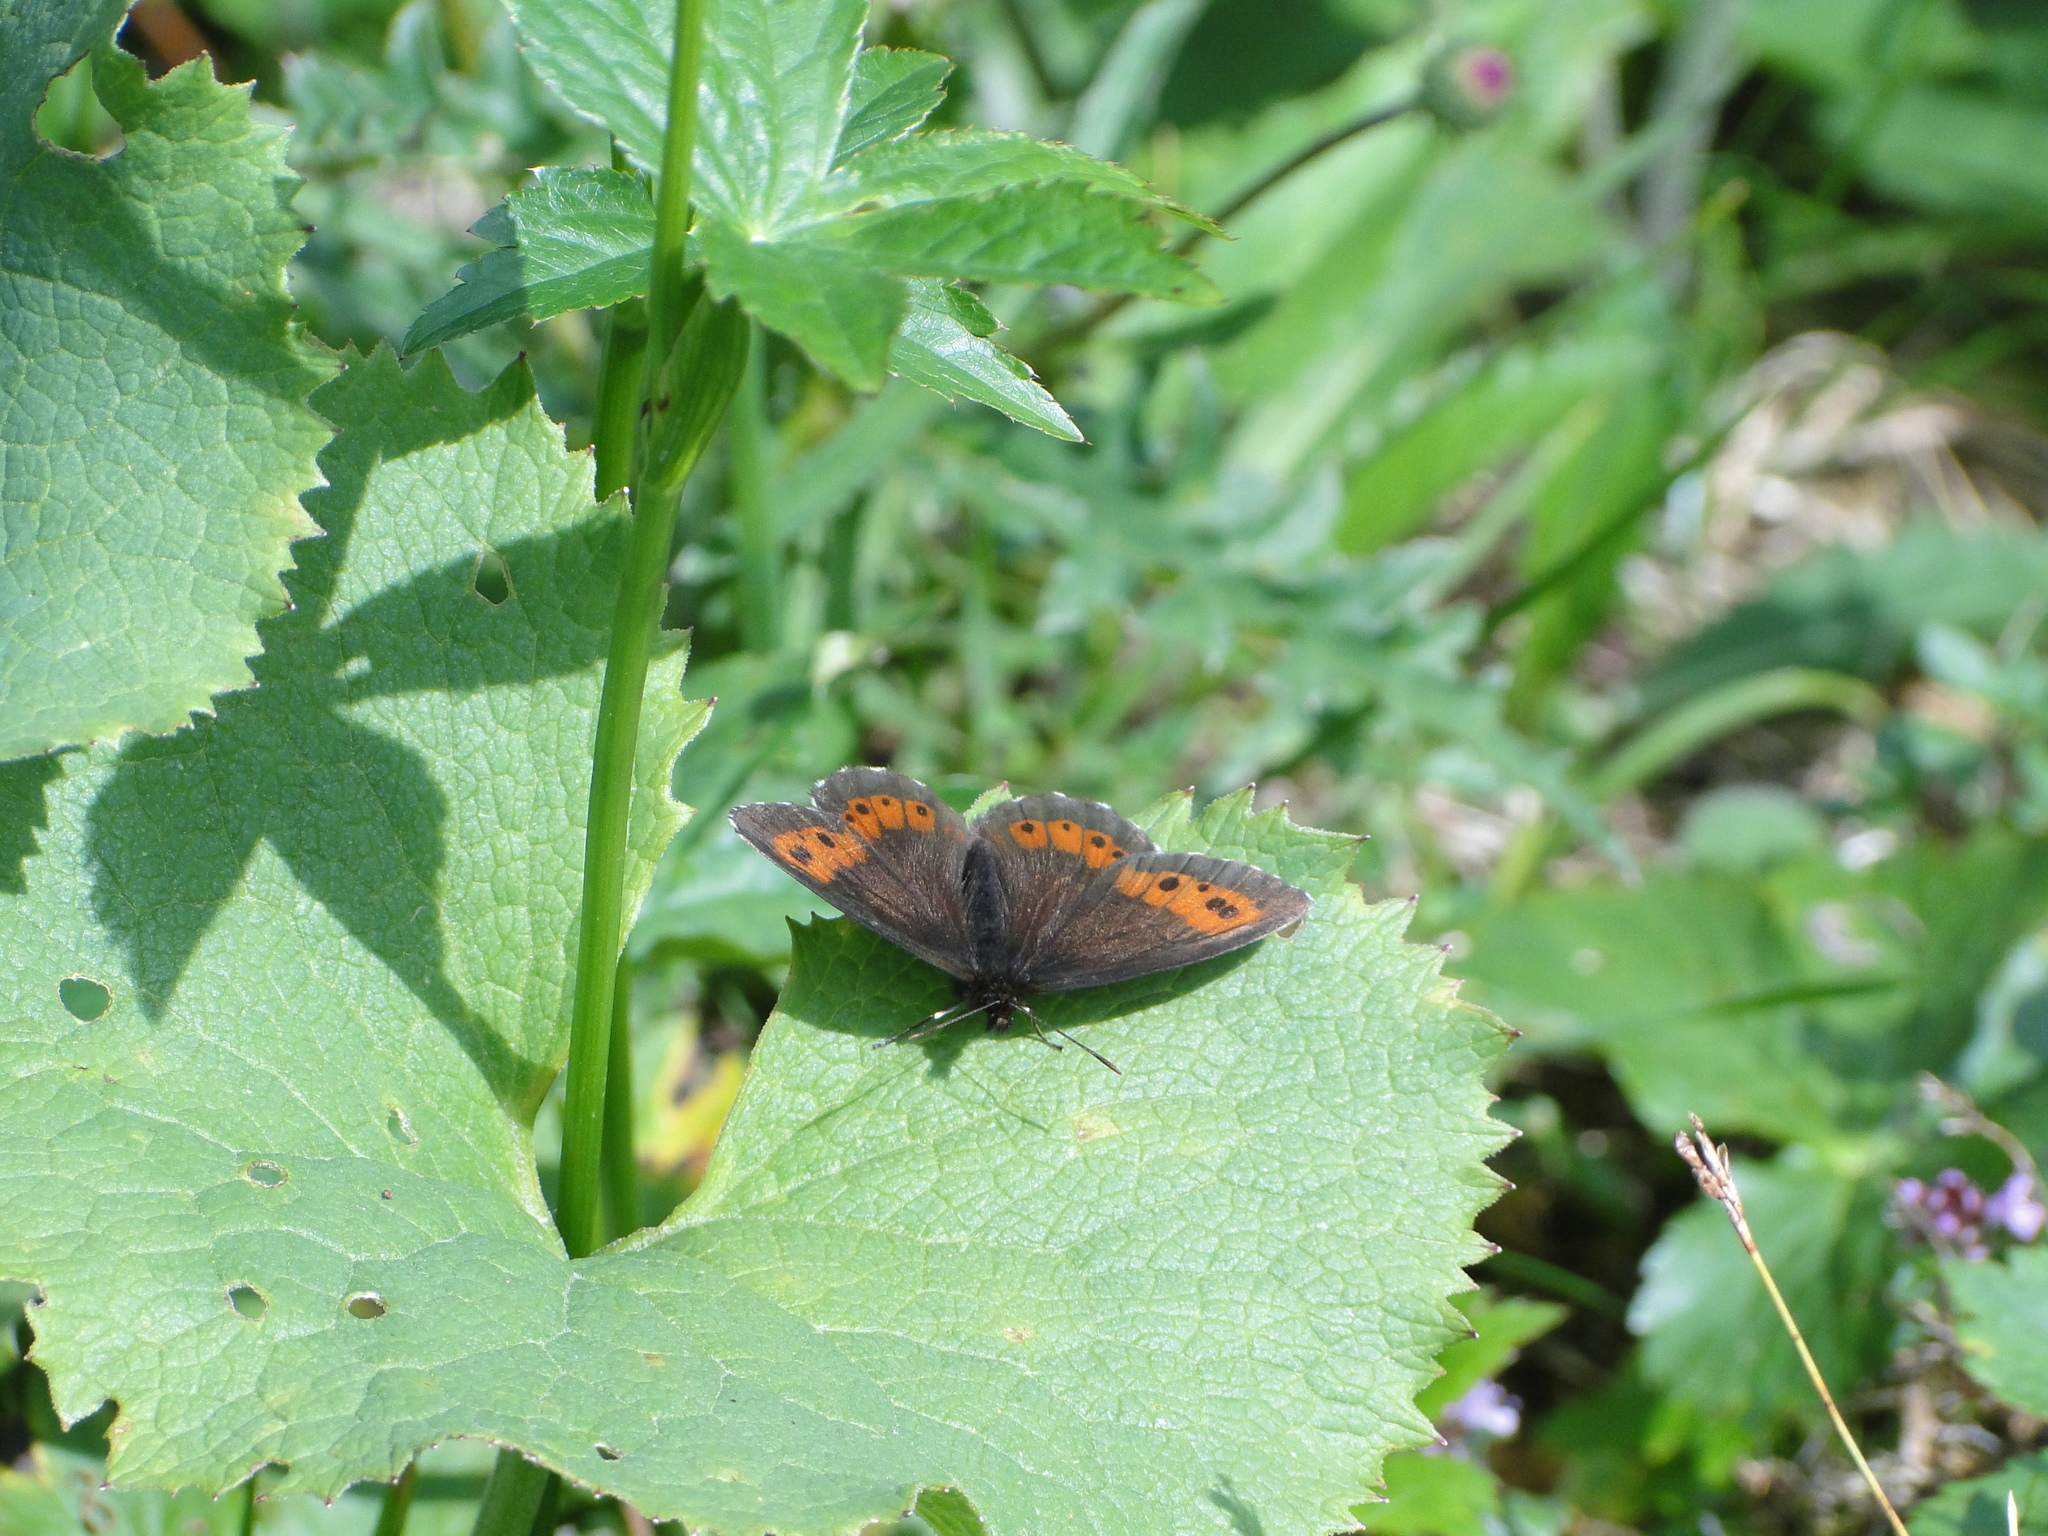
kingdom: Animalia
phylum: Arthropoda
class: Insecta
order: Lepidoptera
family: Nymphalidae
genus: Erebia
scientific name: Erebia euryale
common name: Large ringlet
